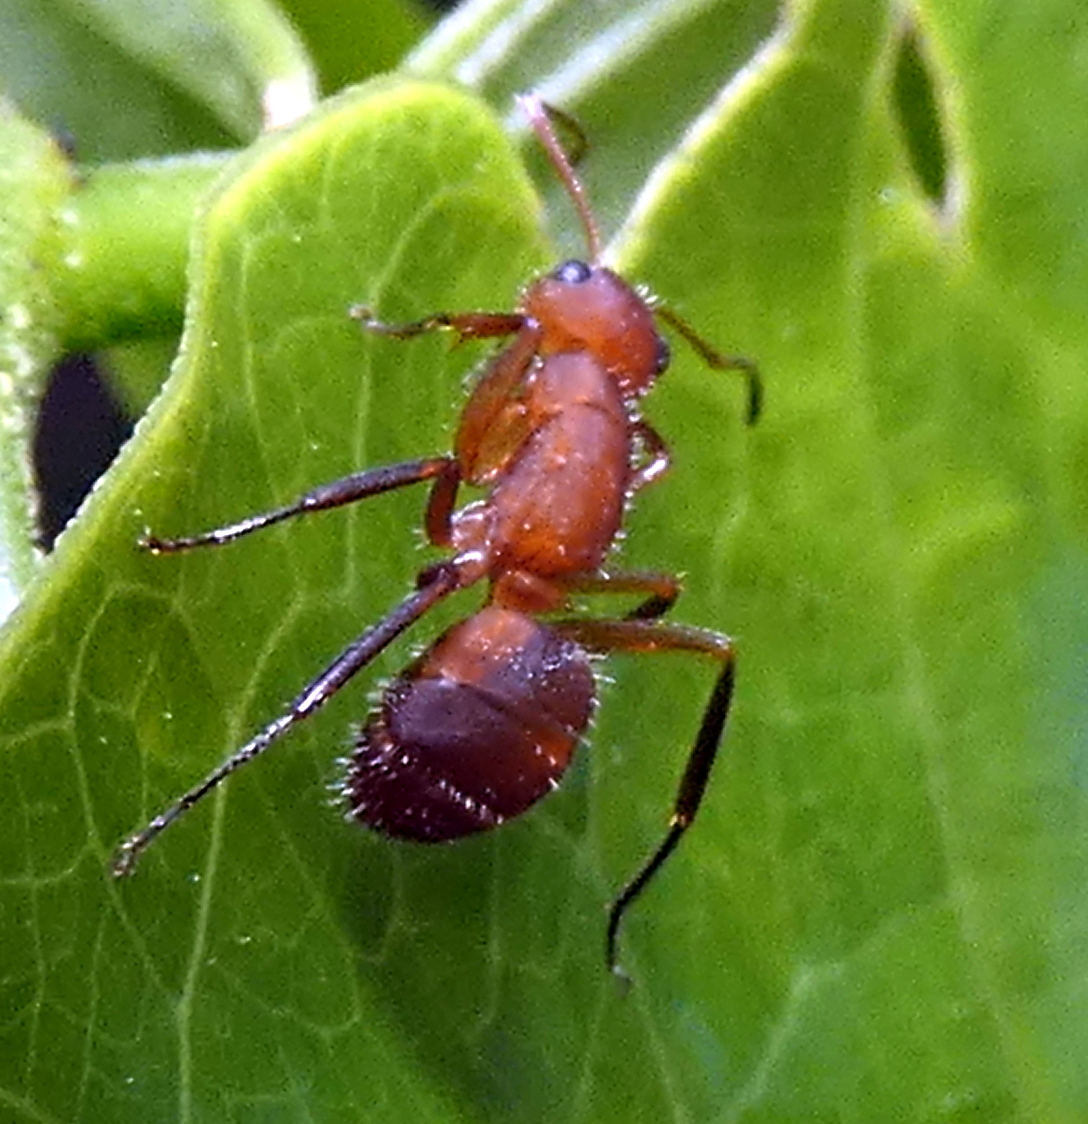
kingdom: Animalia
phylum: Arthropoda
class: Insecta
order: Hymenoptera
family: Formicidae
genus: Camponotus
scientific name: Camponotus rectangularis
